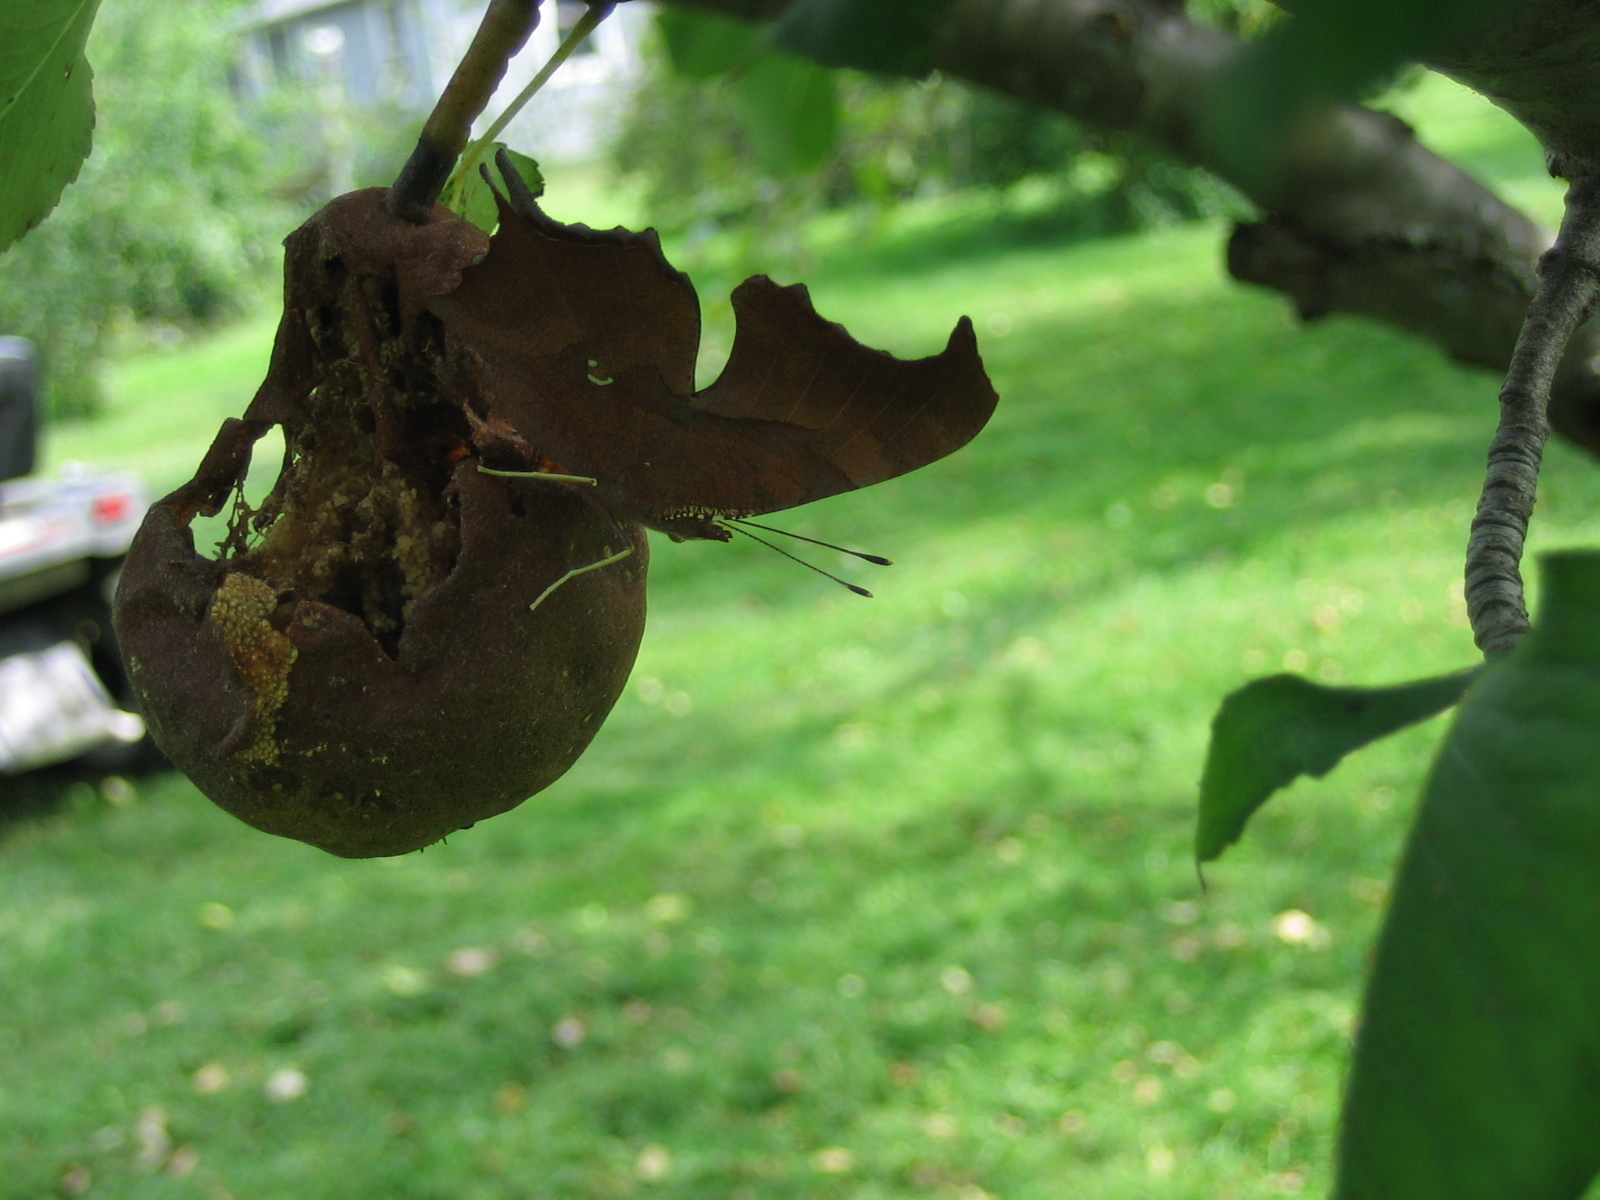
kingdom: Animalia
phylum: Arthropoda
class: Insecta
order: Lepidoptera
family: Nymphalidae
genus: Polygonia
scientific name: Polygonia interrogationis
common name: Question mark
